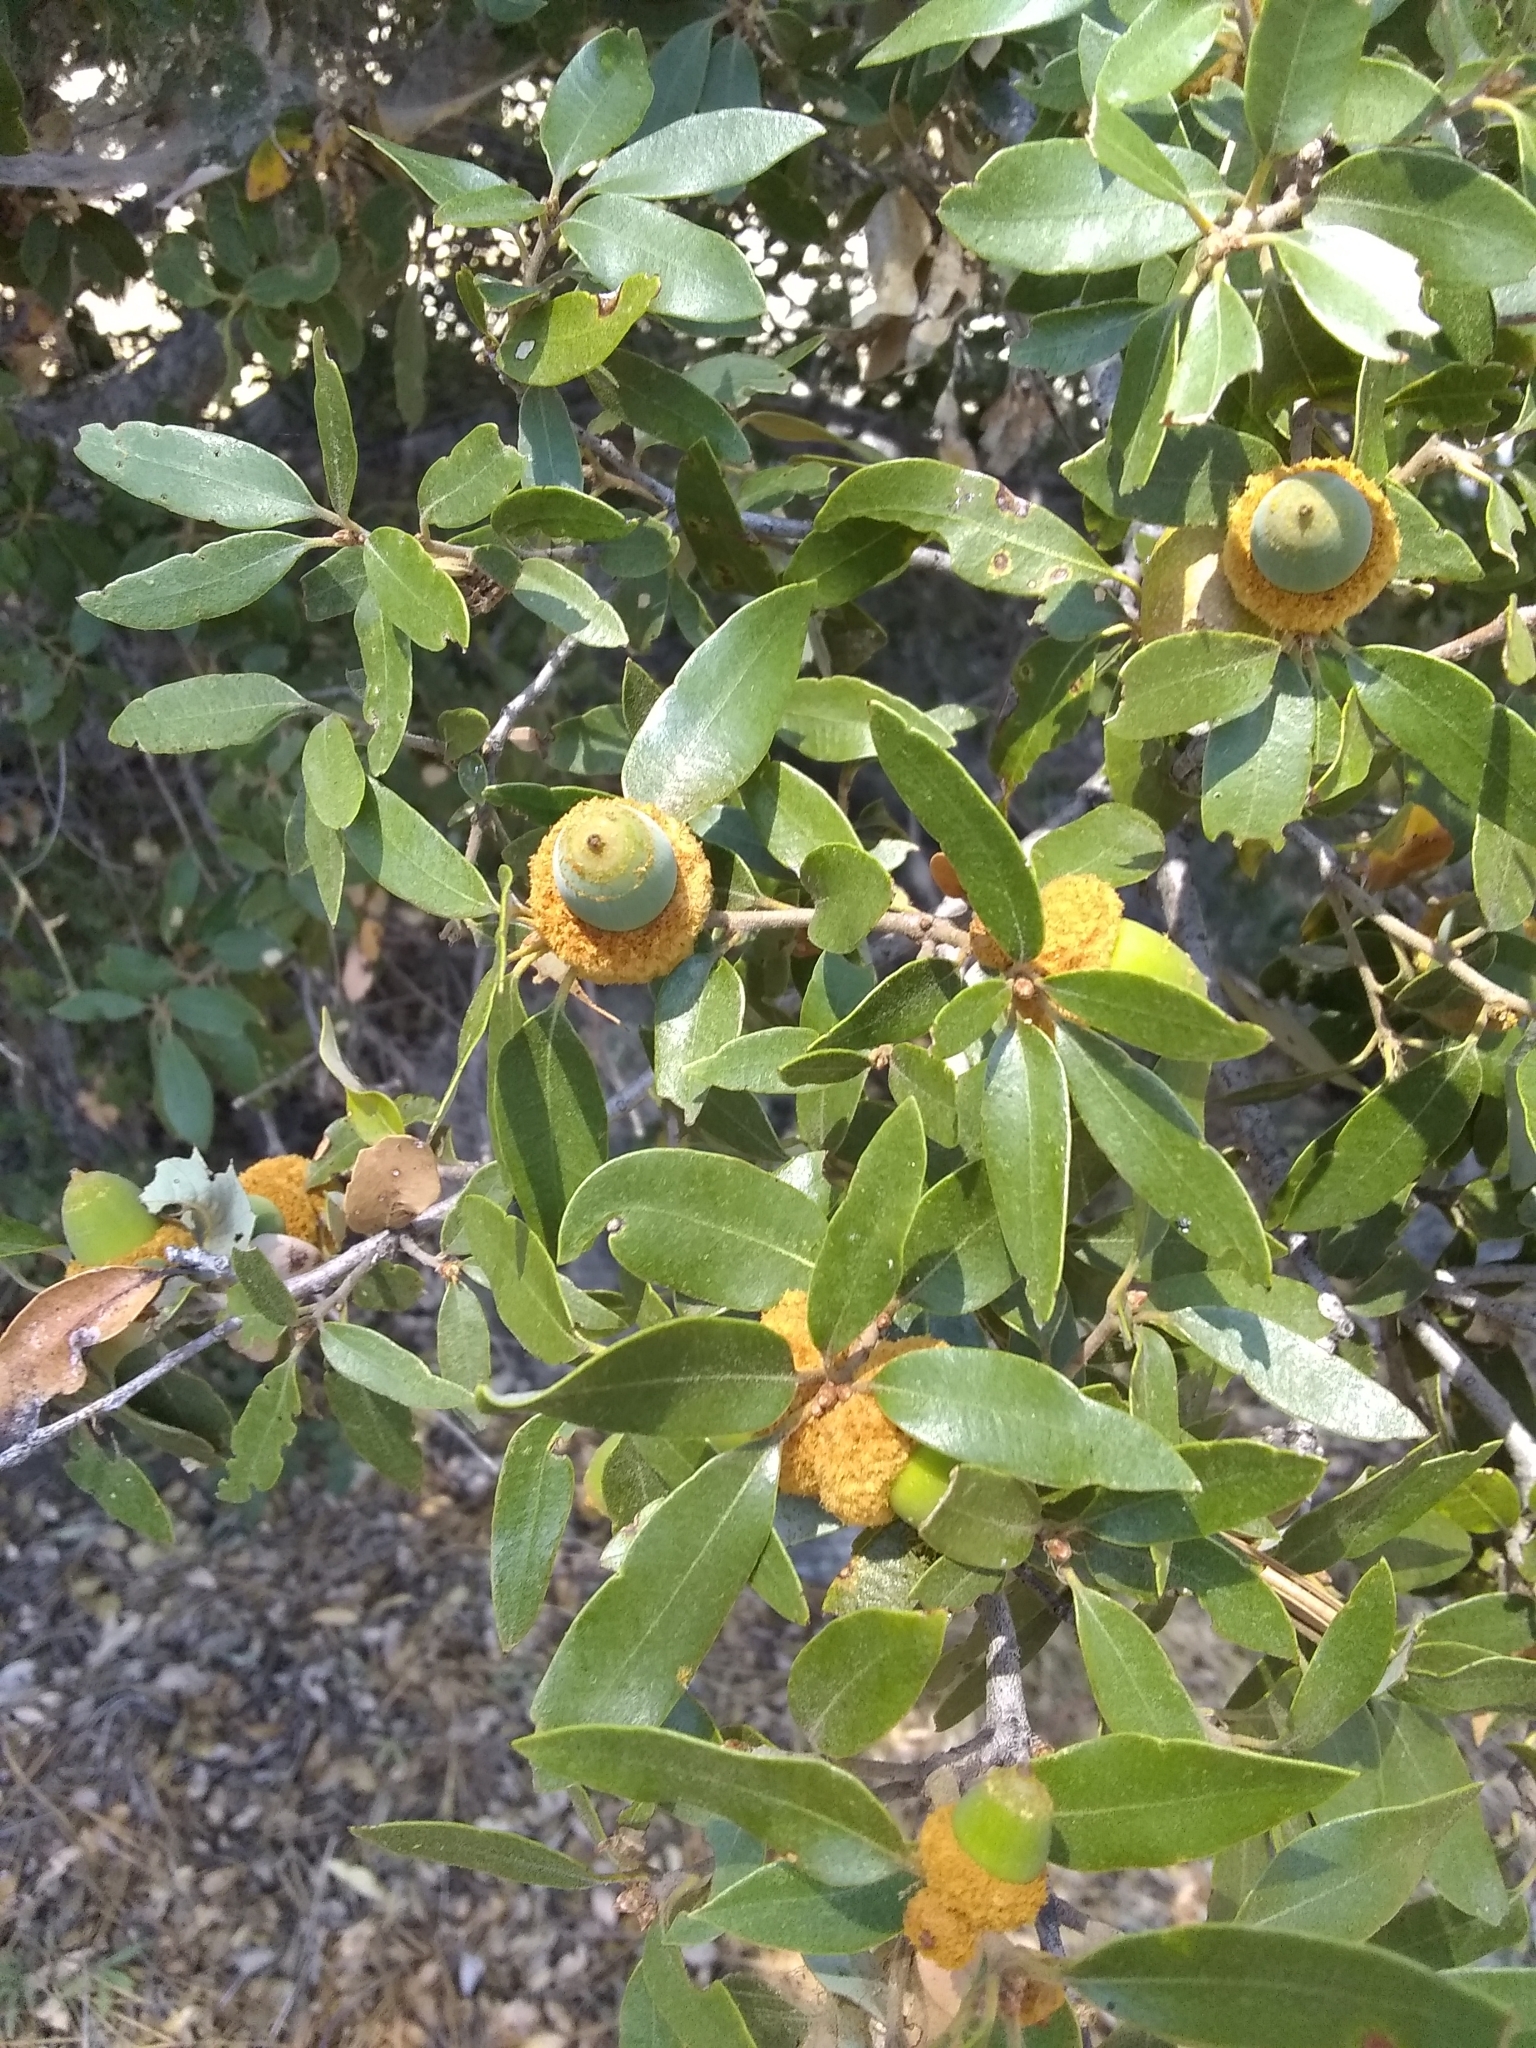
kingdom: Plantae
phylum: Tracheophyta
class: Magnoliopsida
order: Fagales
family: Fagaceae
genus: Quercus
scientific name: Quercus chrysolepis
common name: Canyon live oak
